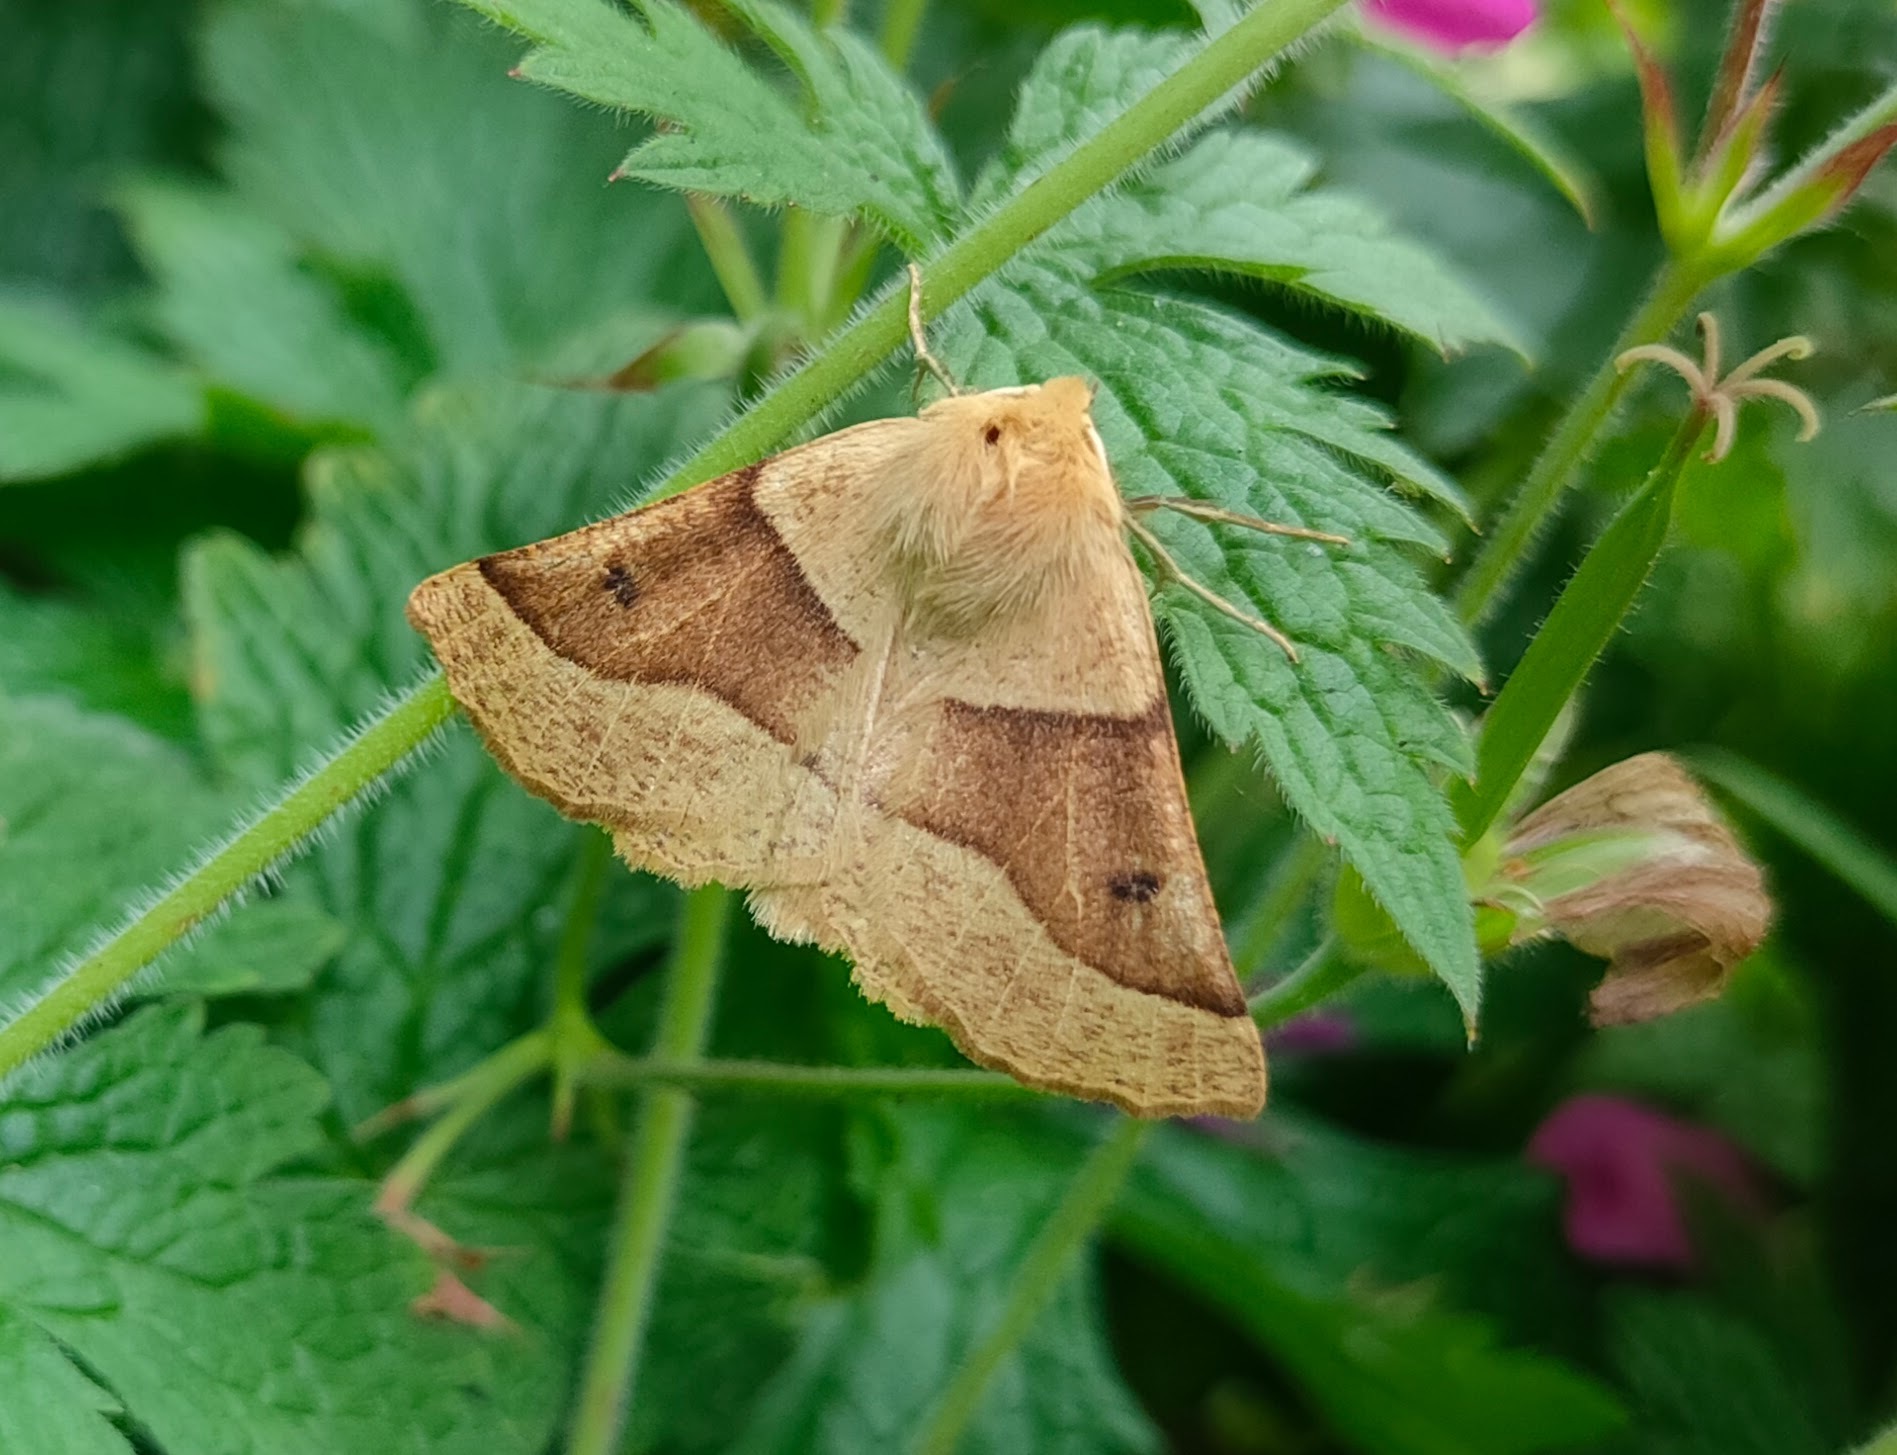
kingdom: Animalia
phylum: Arthropoda
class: Insecta
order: Lepidoptera
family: Geometridae
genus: Crocallis
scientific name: Crocallis elinguaria
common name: Scalloped oak
